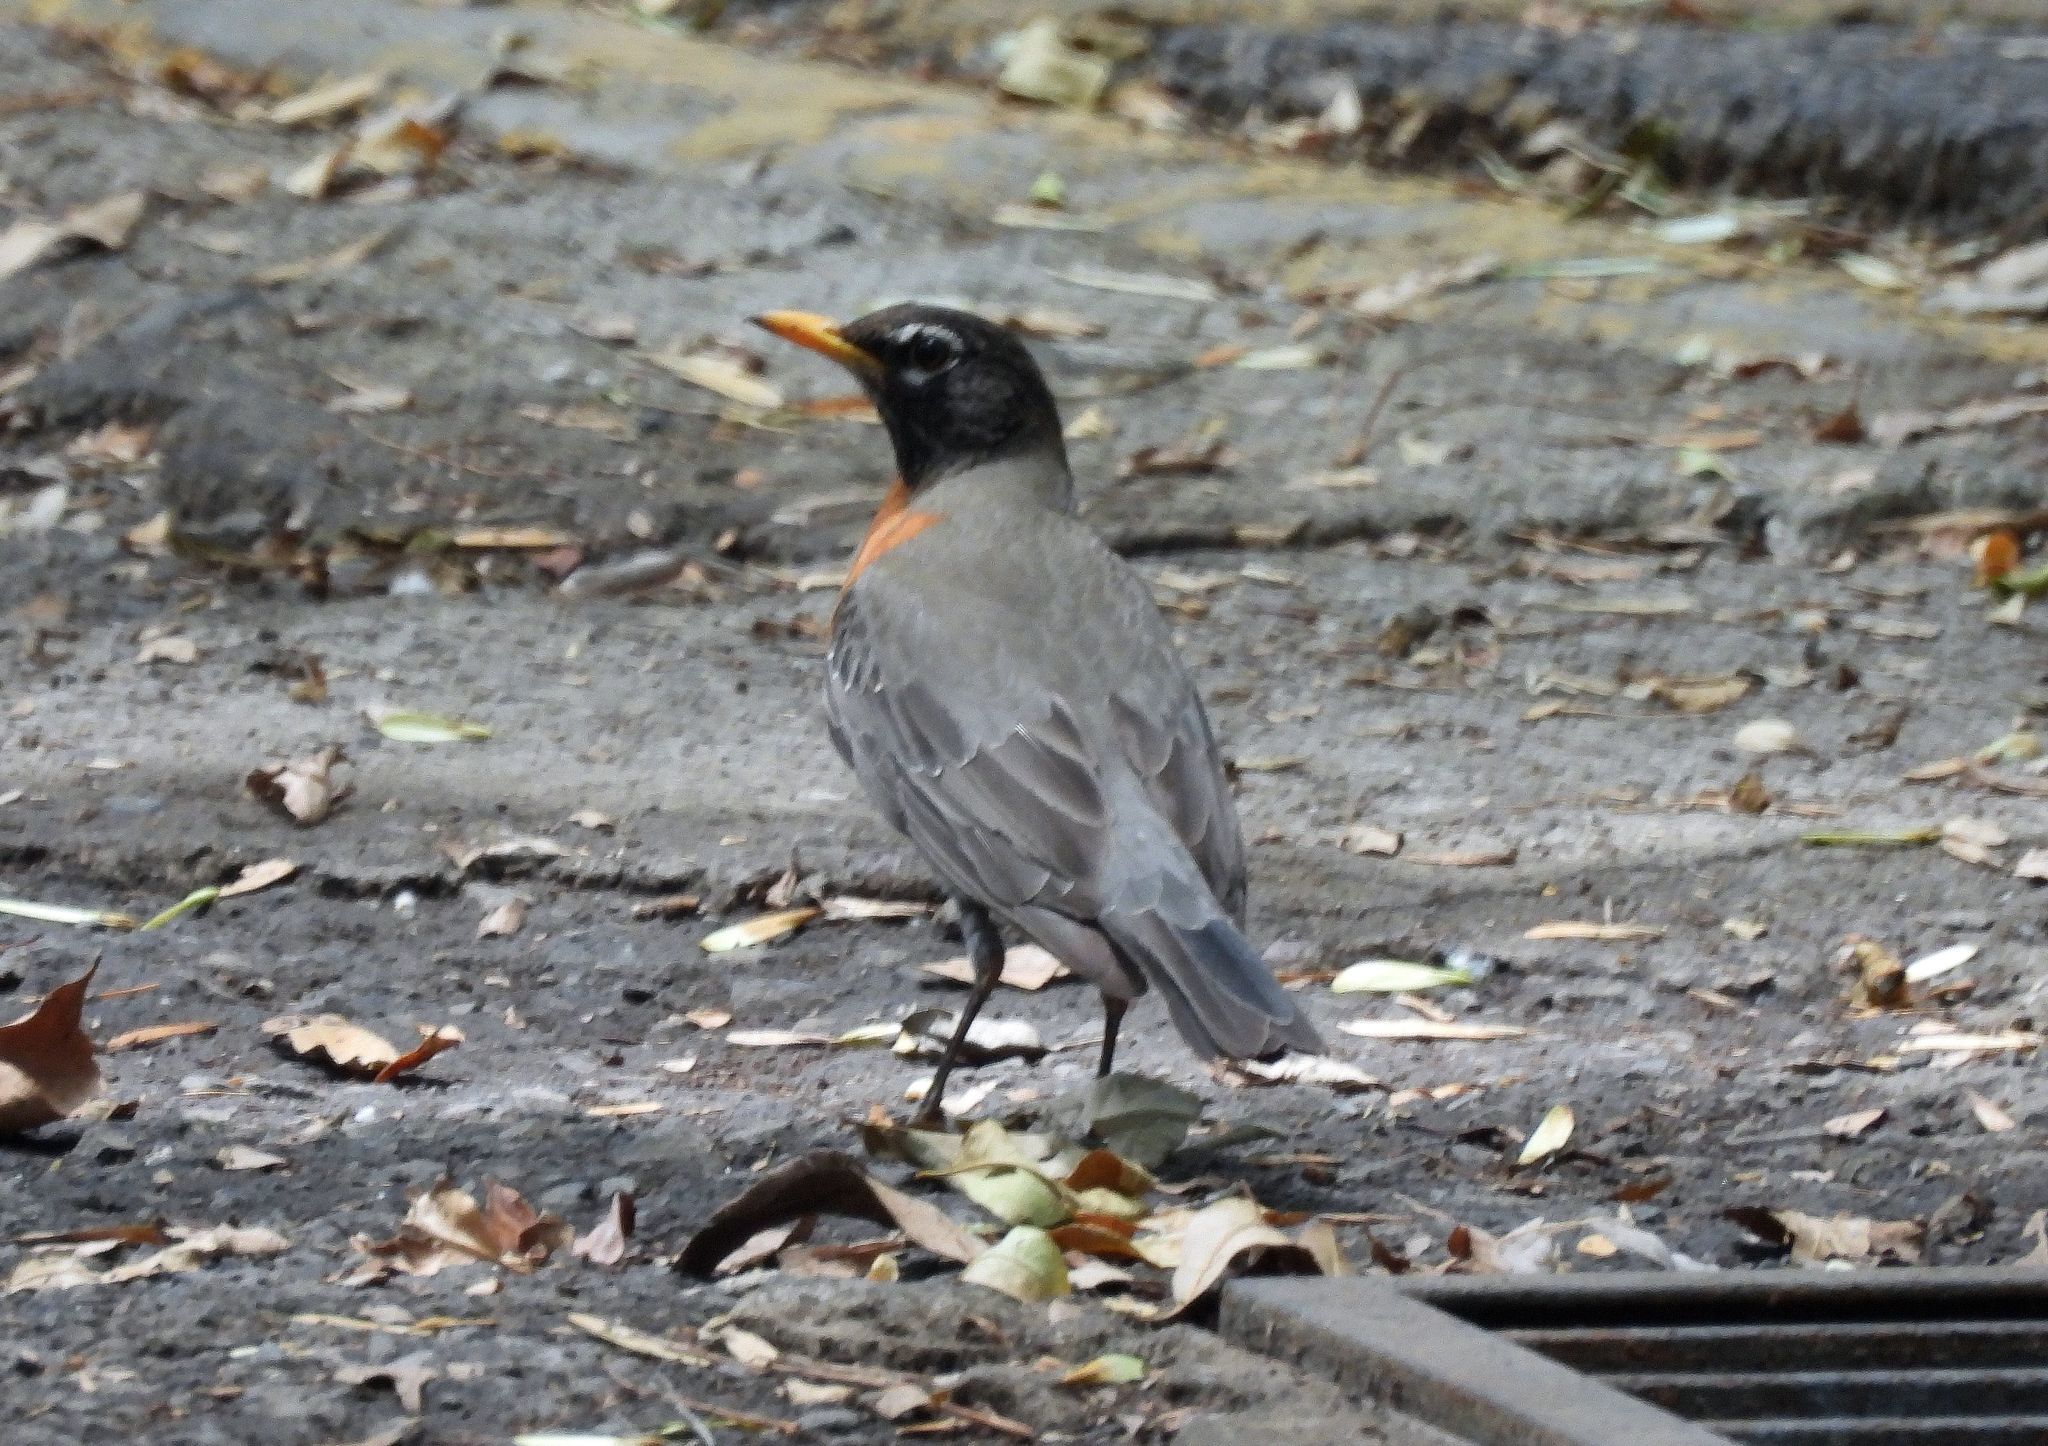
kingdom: Animalia
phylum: Chordata
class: Aves
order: Passeriformes
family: Turdidae
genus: Turdus
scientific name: Turdus migratorius
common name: American robin
